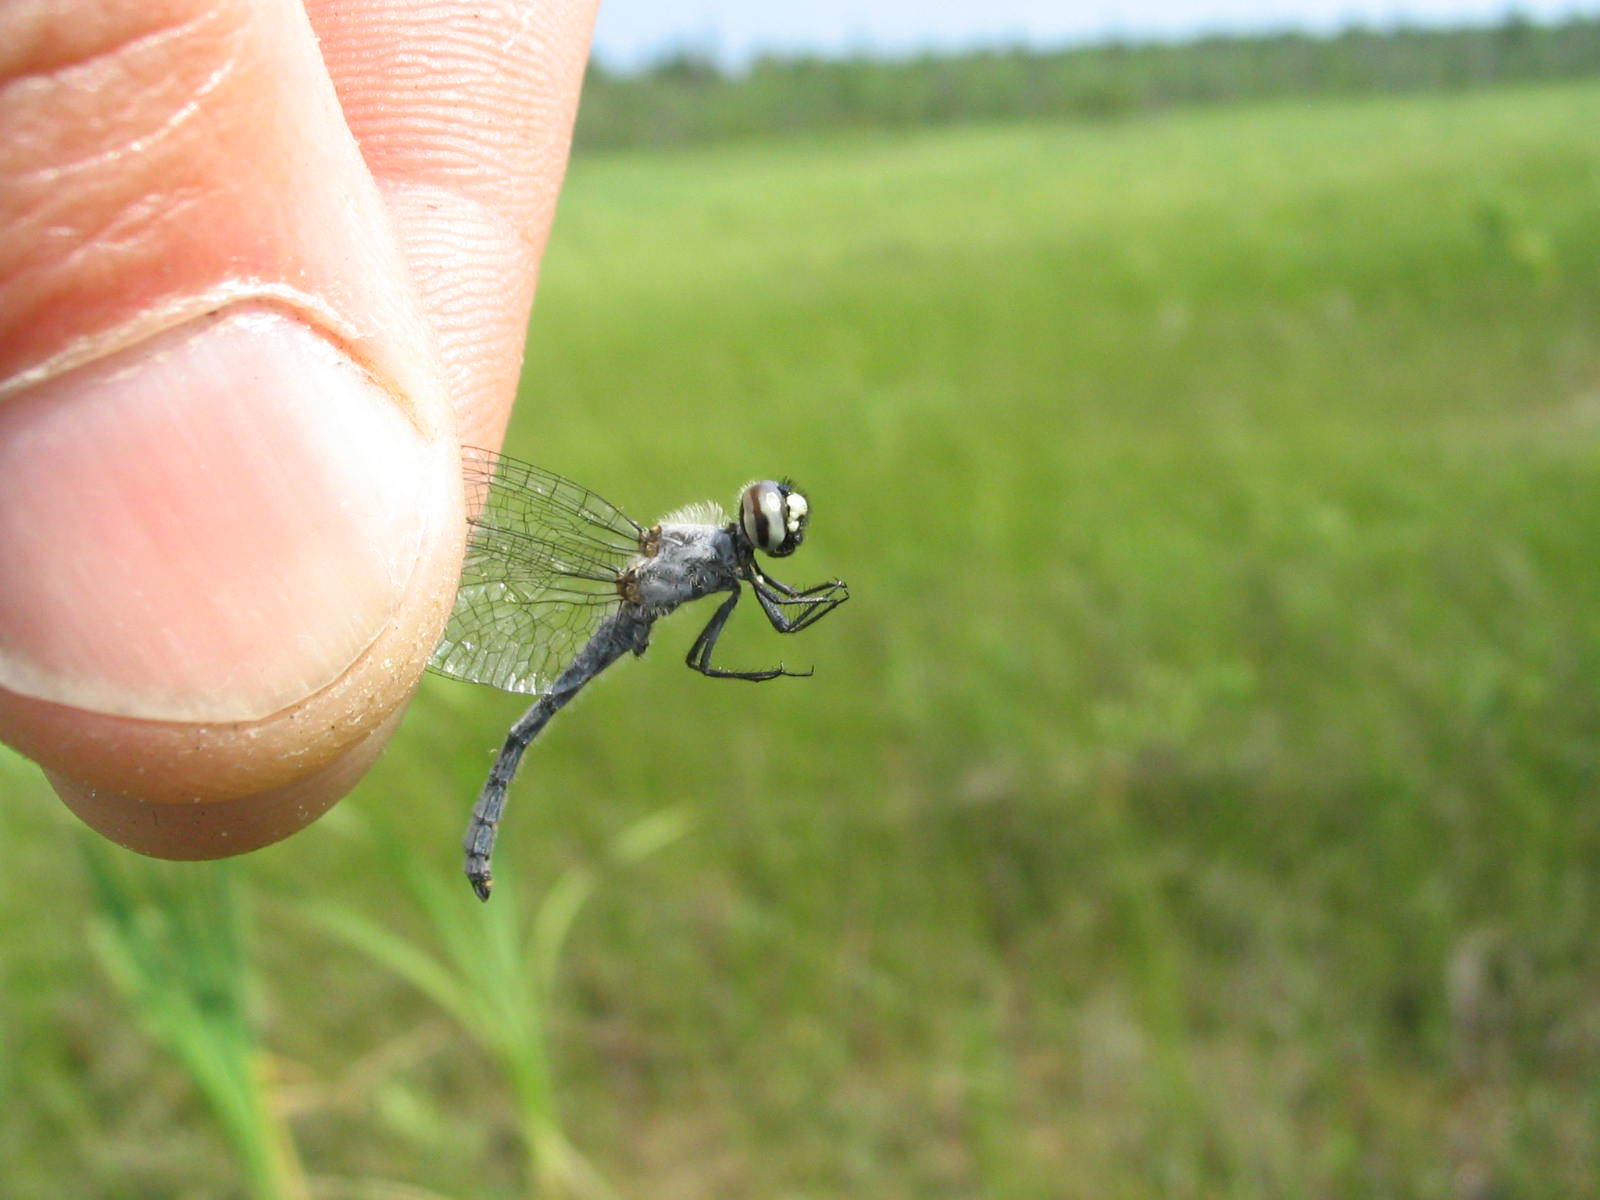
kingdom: Animalia
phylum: Arthropoda
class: Insecta
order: Odonata
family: Libellulidae
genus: Nannothemis
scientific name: Nannothemis bella
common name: Elfin skimmer
